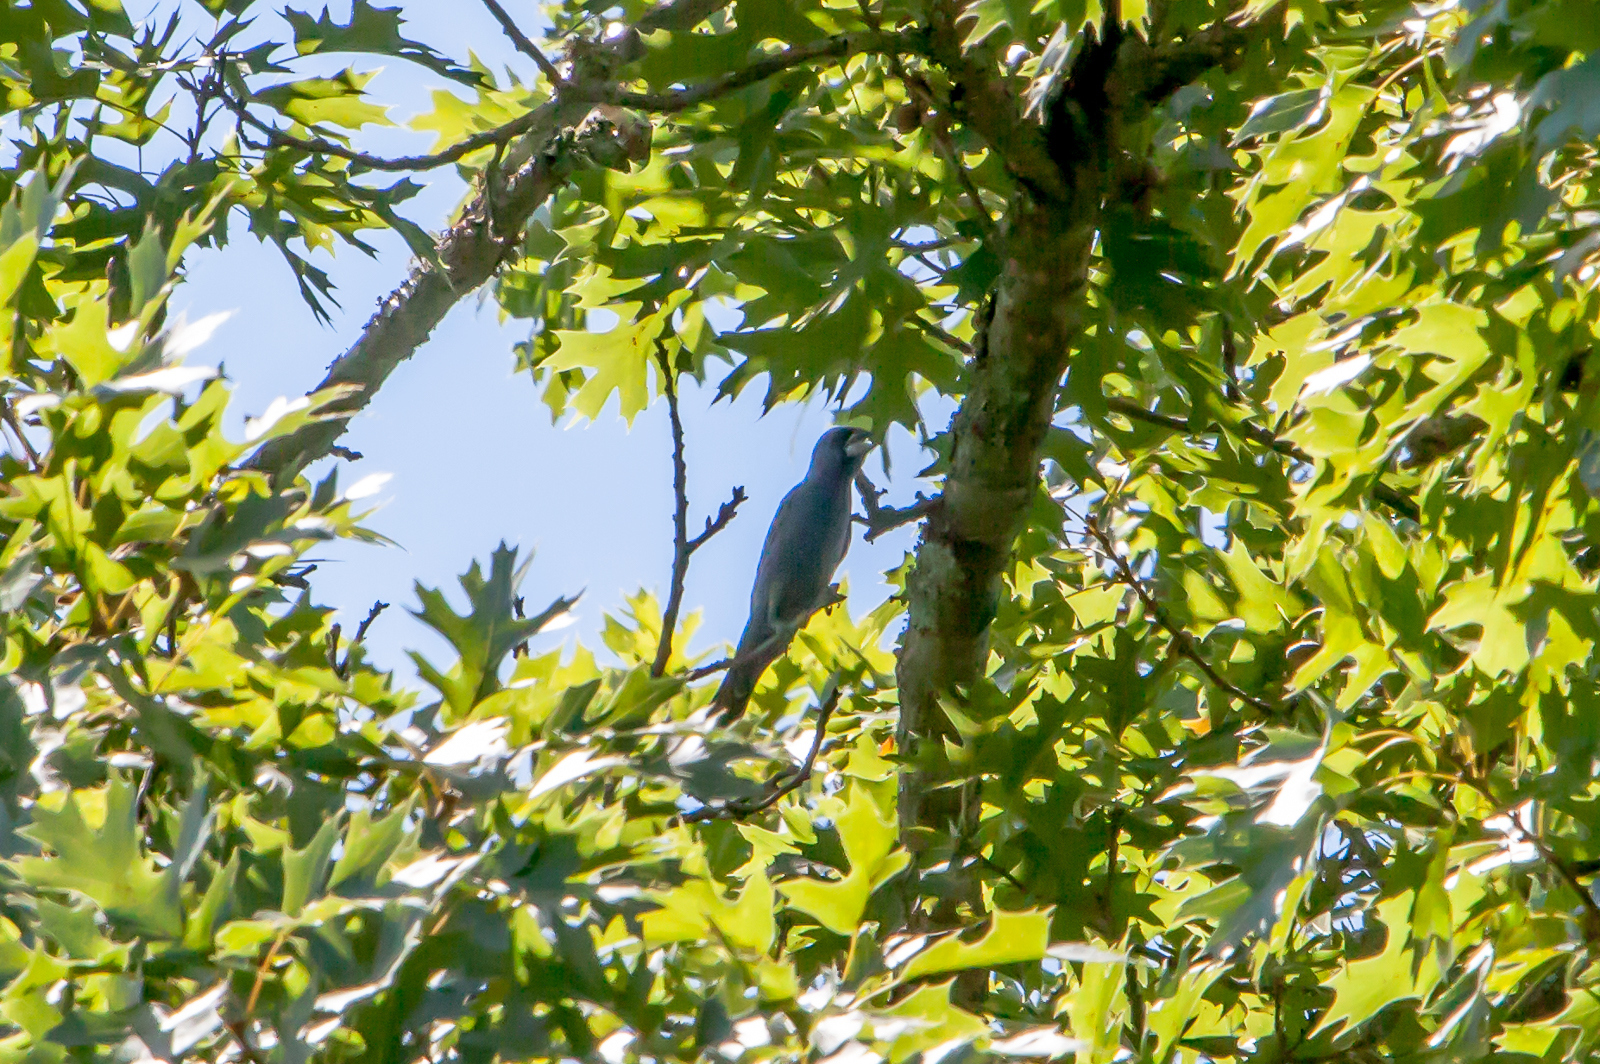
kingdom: Animalia
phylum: Chordata
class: Aves
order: Passeriformes
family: Cardinalidae
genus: Passerina
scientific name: Passerina caerulea
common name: Blue grosbeak
